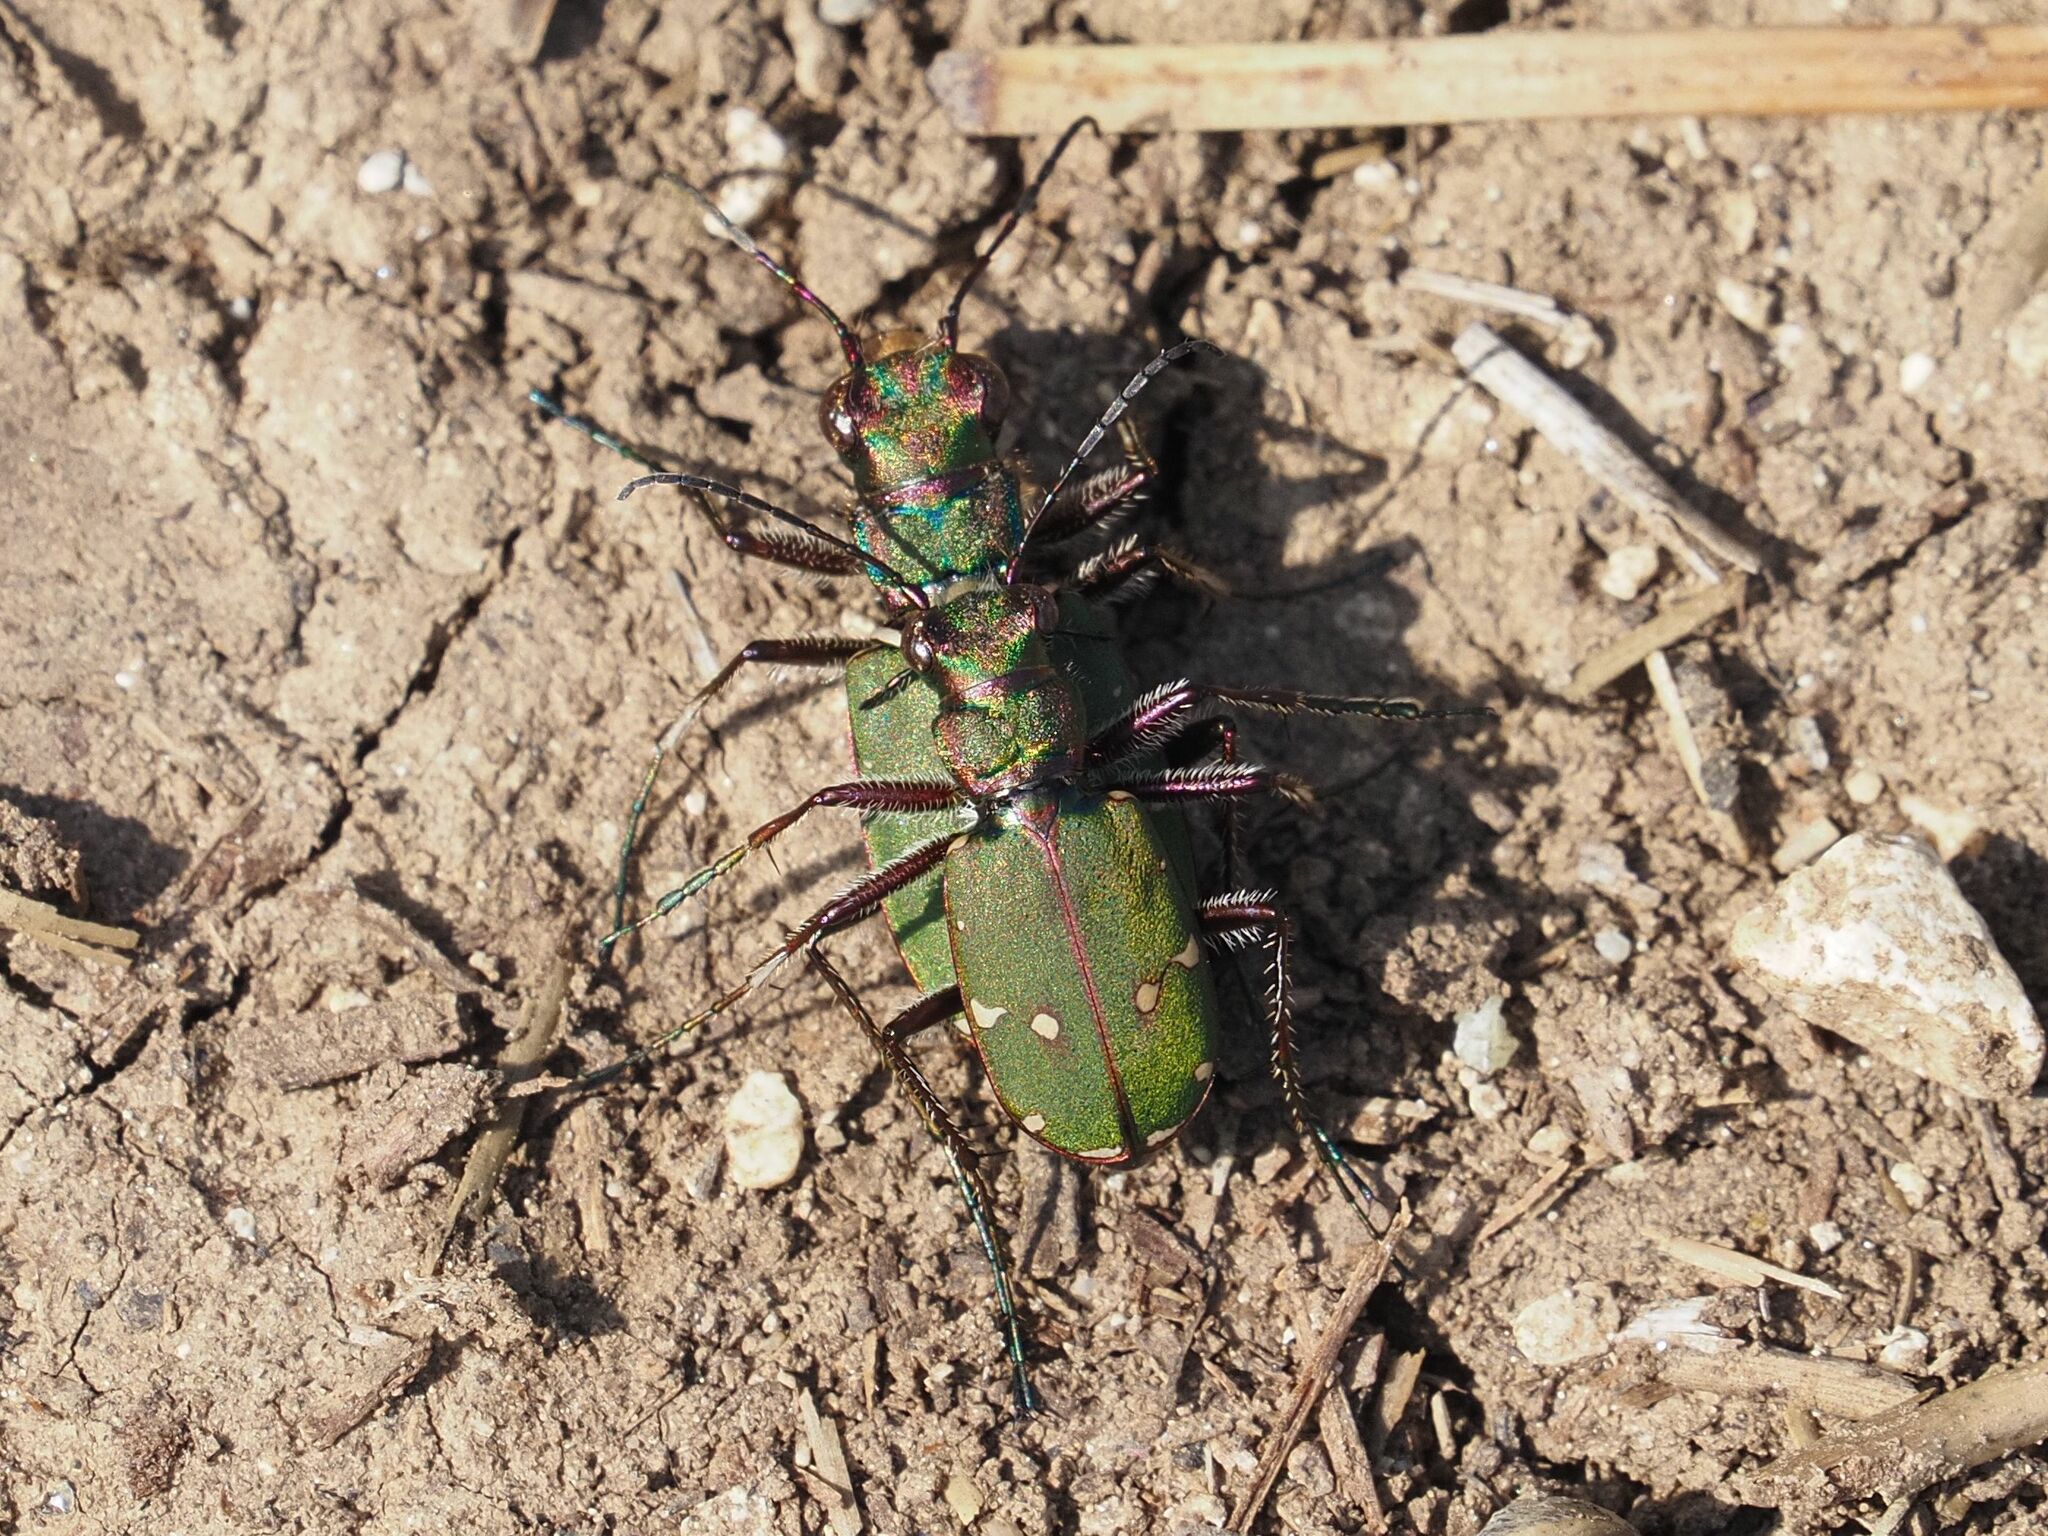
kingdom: Animalia
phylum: Arthropoda
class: Insecta
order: Coleoptera
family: Carabidae
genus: Cicindela
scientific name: Cicindela campestris
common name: Common tiger beetle
